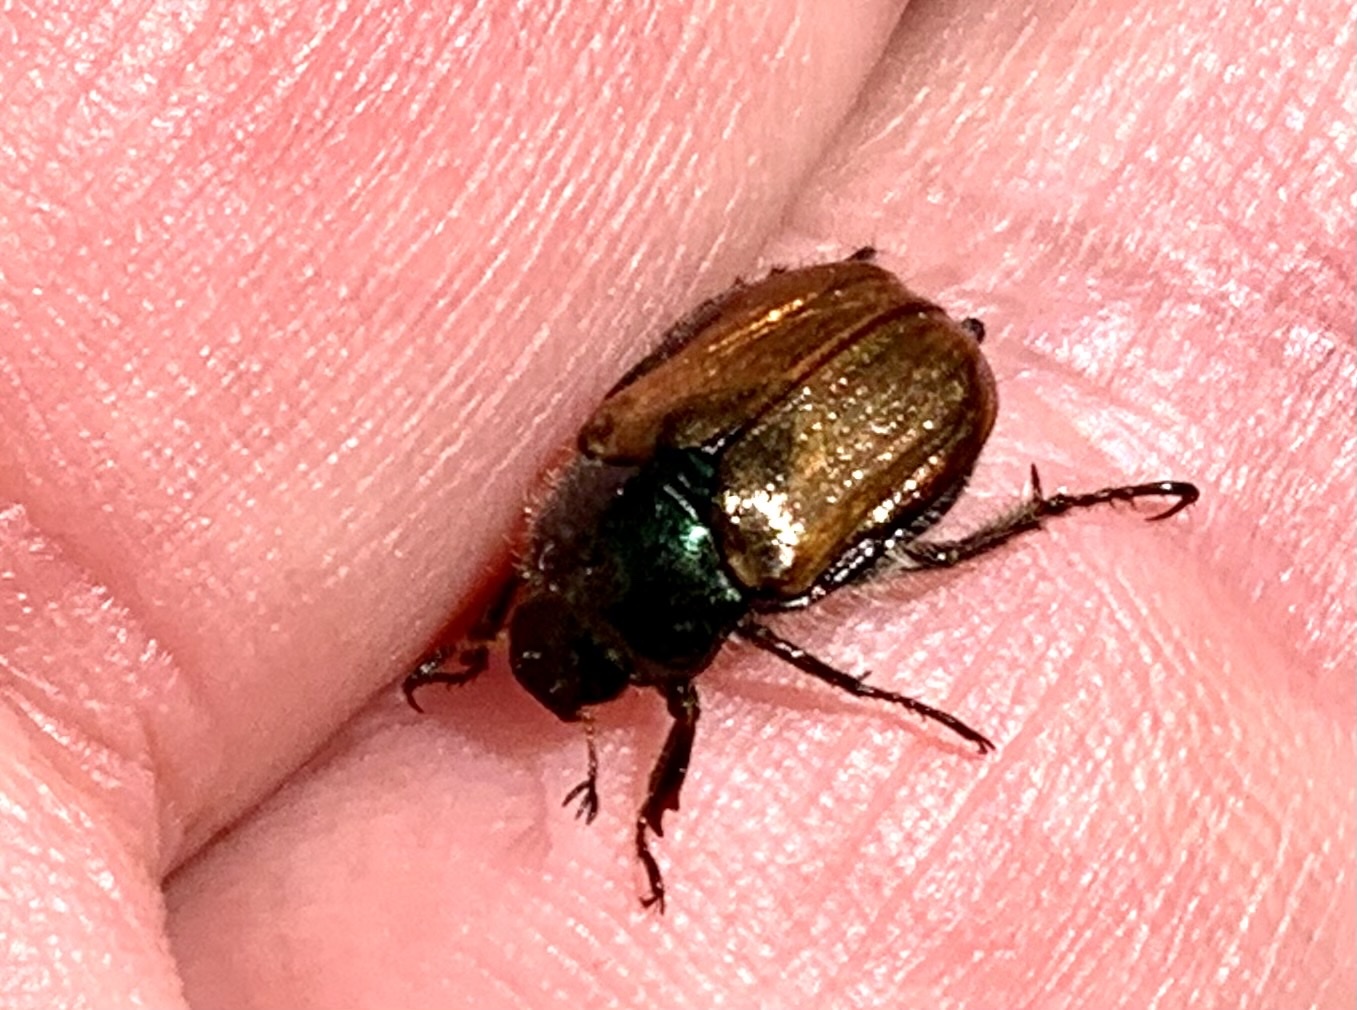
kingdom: Animalia
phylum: Arthropoda
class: Insecta
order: Coleoptera
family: Scarabaeidae
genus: Phyllopertha
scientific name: Phyllopertha horticola
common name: Garden chafer
